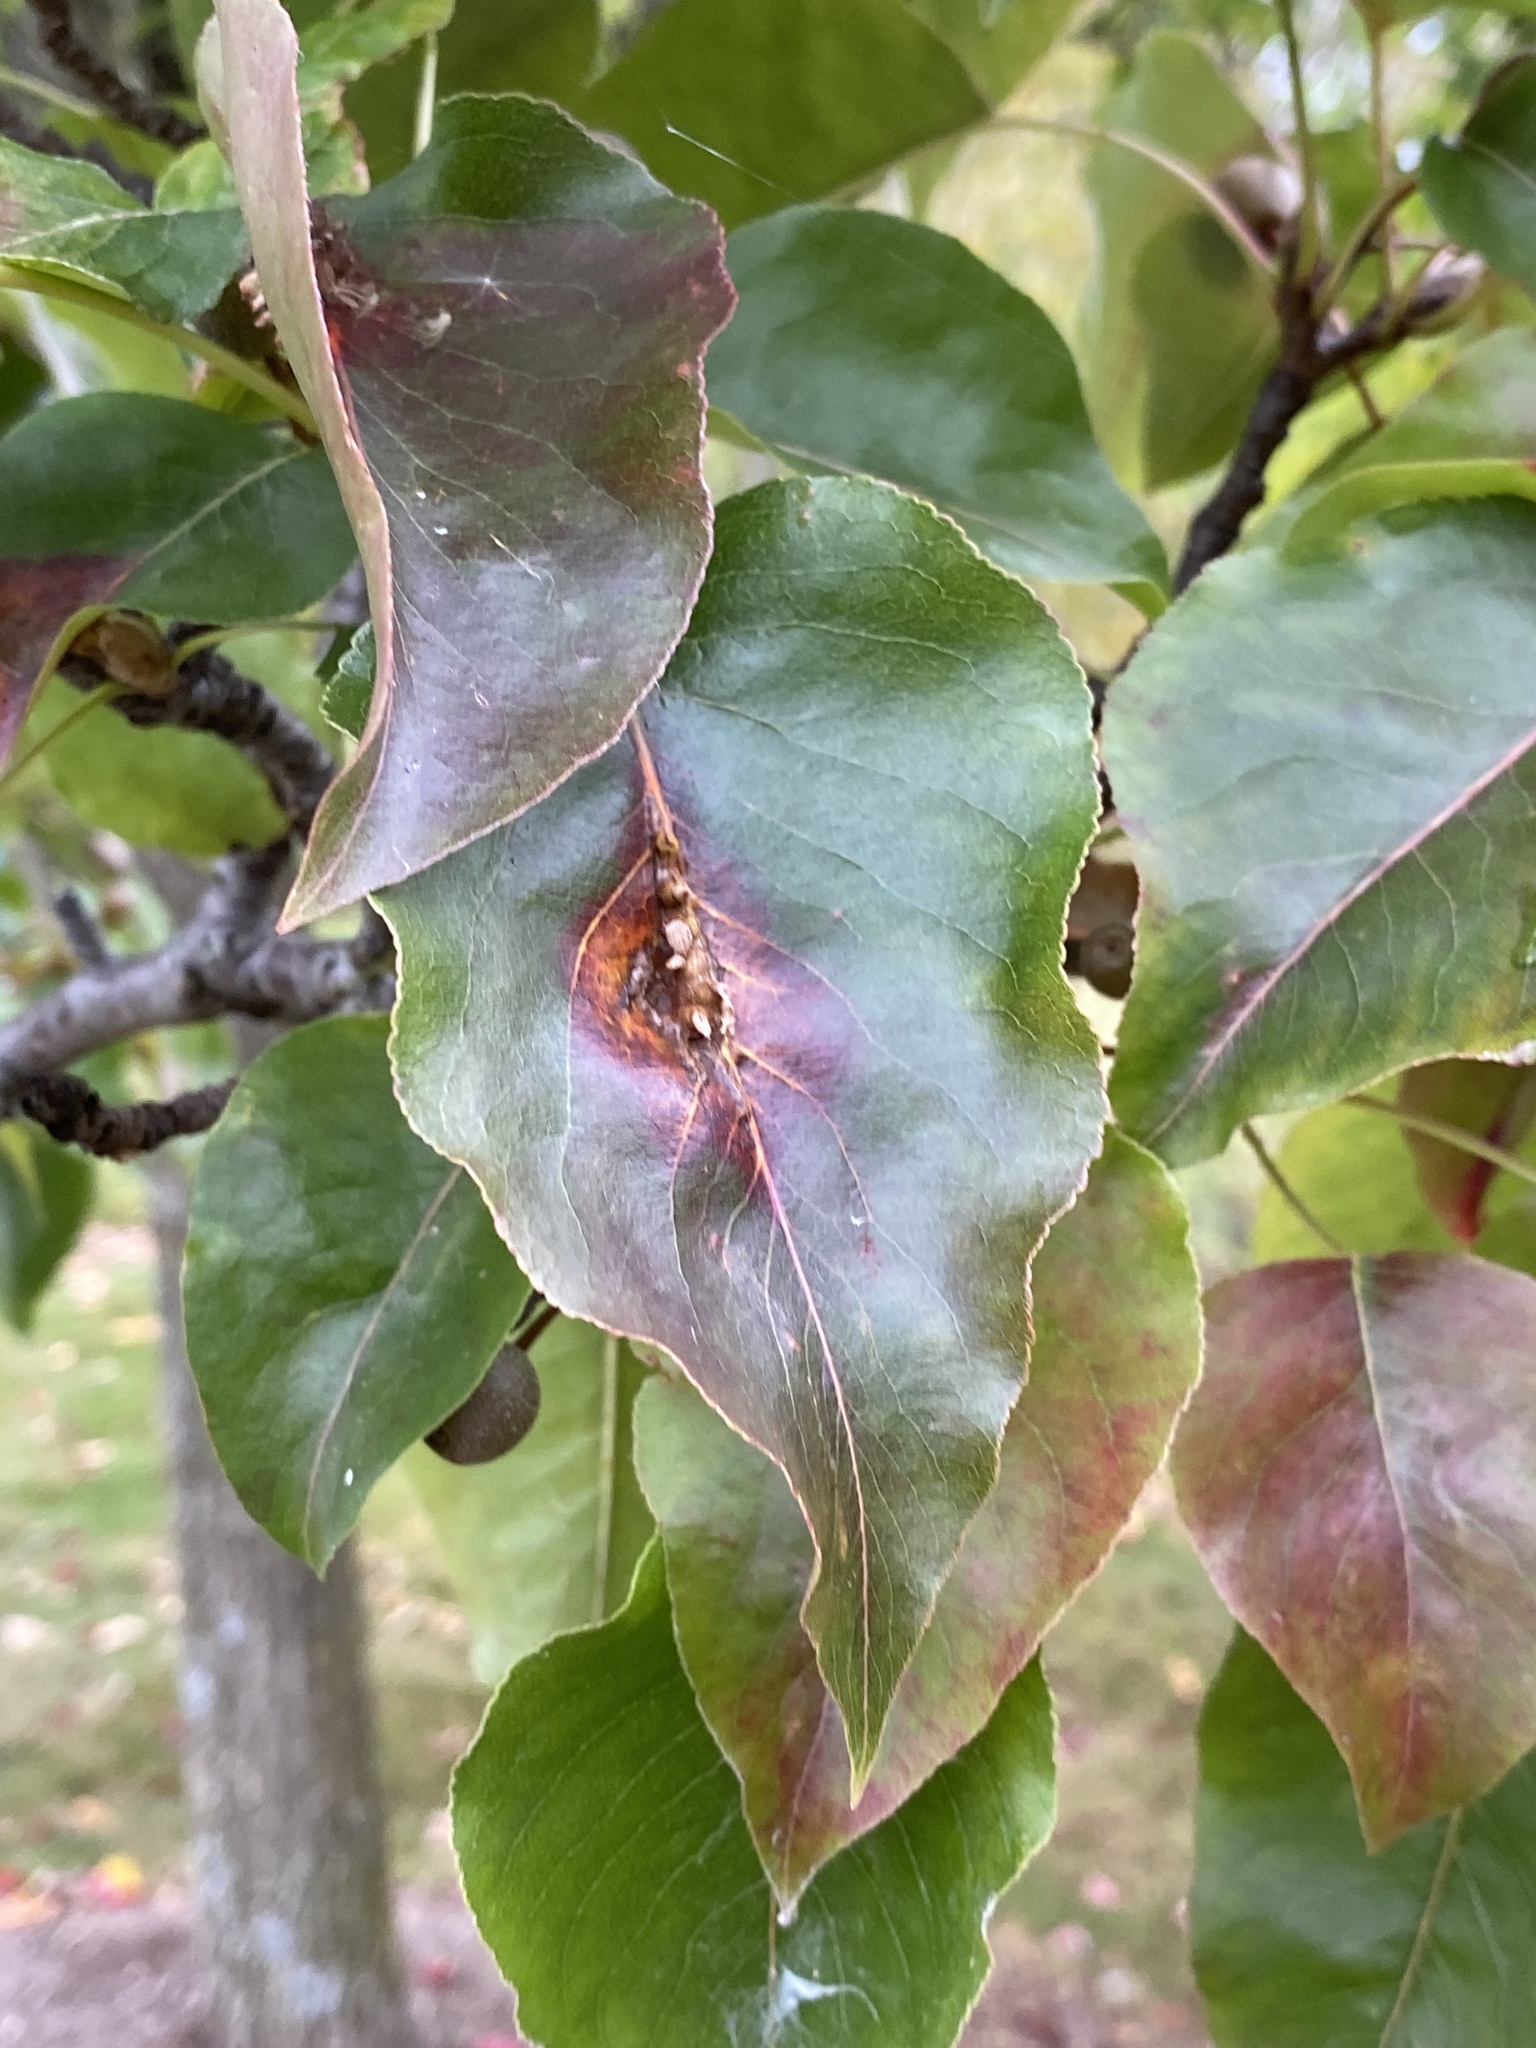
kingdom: Fungi
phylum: Basidiomycota
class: Pucciniomycetes
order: Pucciniales
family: Gymnosporangiaceae
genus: Gymnosporangium
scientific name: Gymnosporangium sabinae
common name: Pear trellis rust fungus
